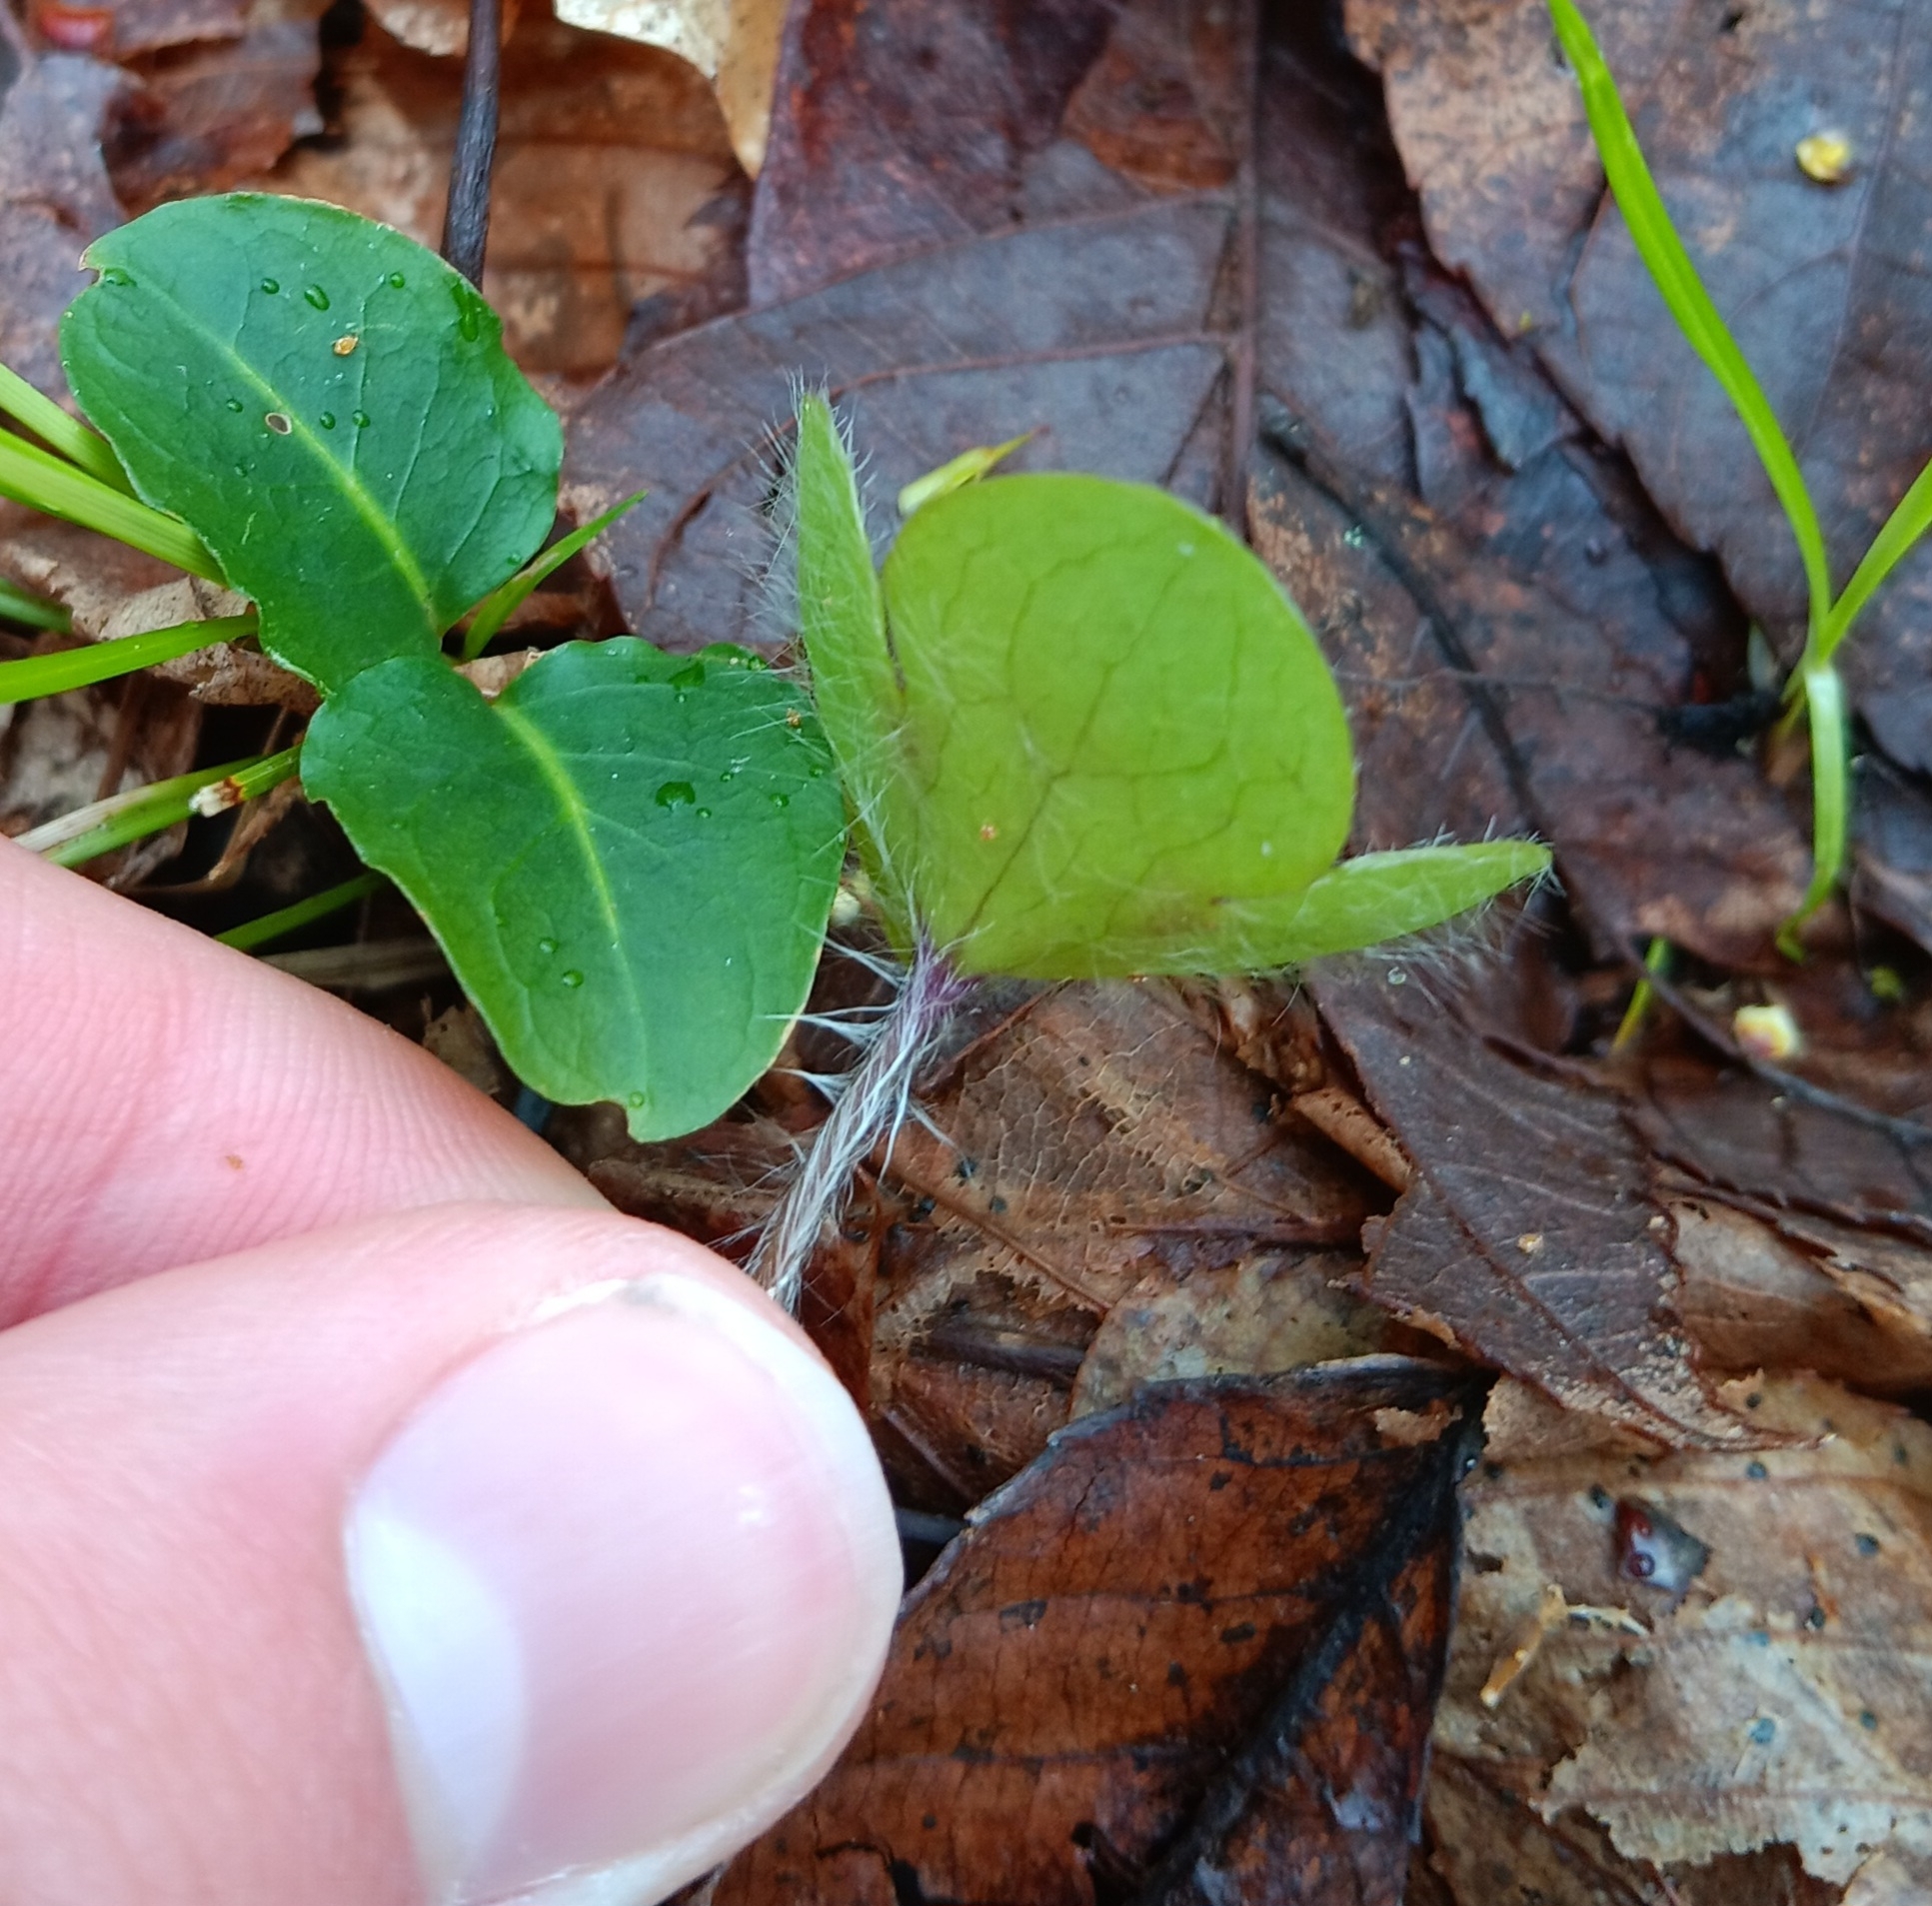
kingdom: Plantae
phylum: Tracheophyta
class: Magnoliopsida
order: Ranunculales
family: Ranunculaceae
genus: Hepatica
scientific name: Hepatica americana
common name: American hepatica
